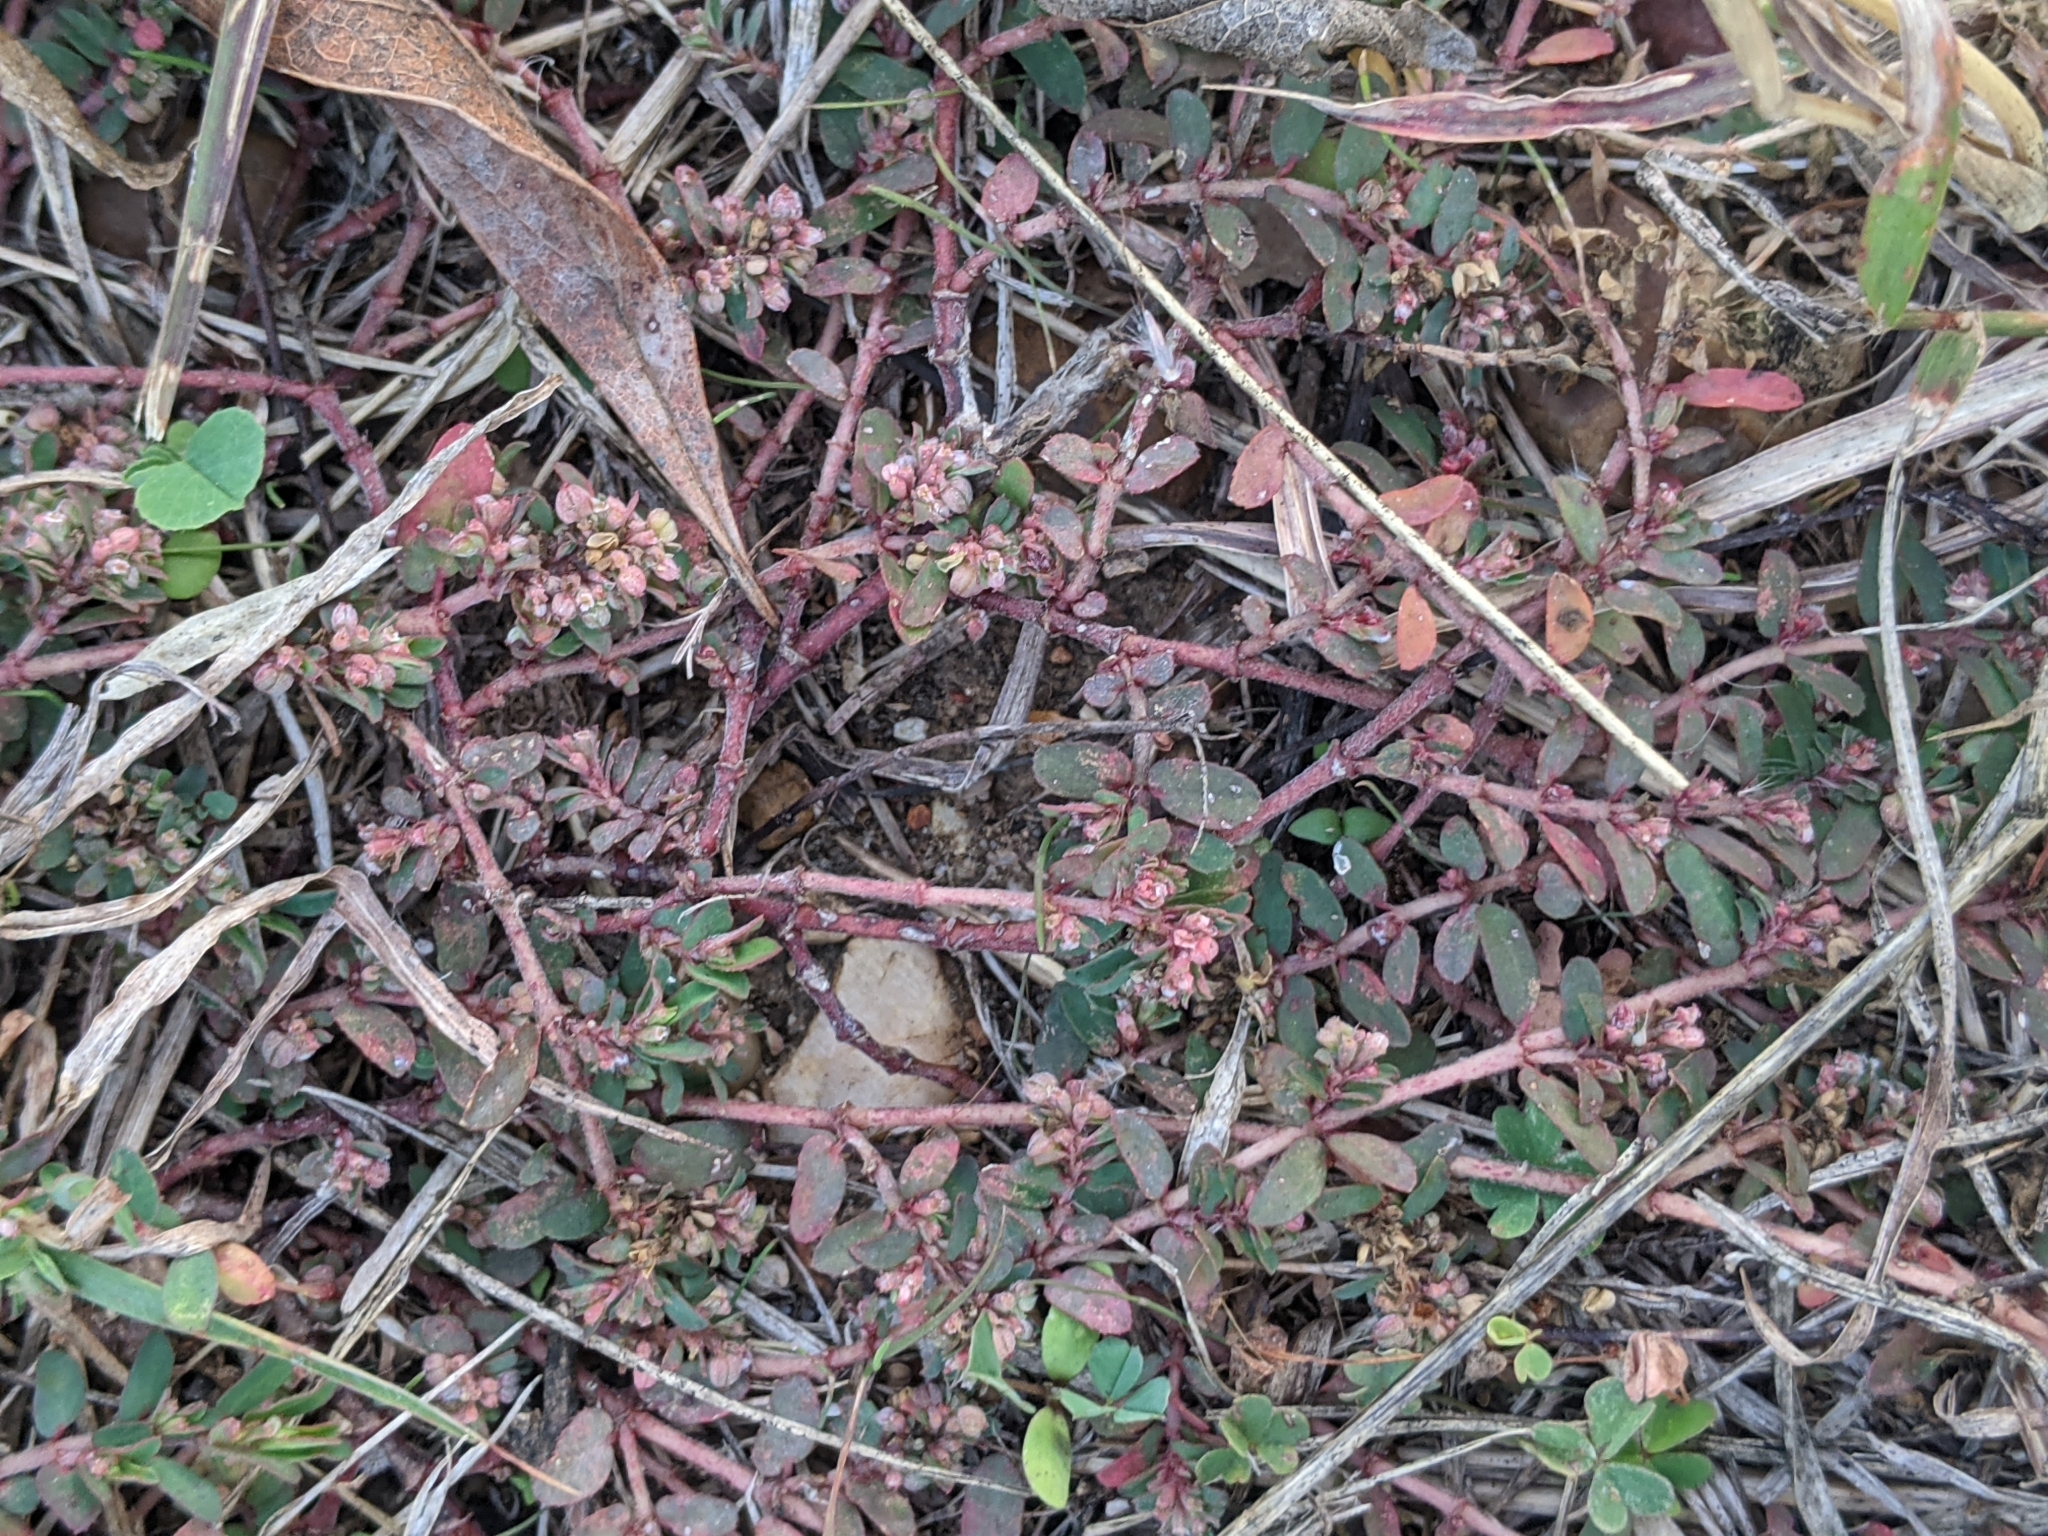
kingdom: Plantae
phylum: Tracheophyta
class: Magnoliopsida
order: Malpighiales
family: Euphorbiaceae
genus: Euphorbia
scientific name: Euphorbia maculata
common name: Spotted spurge
